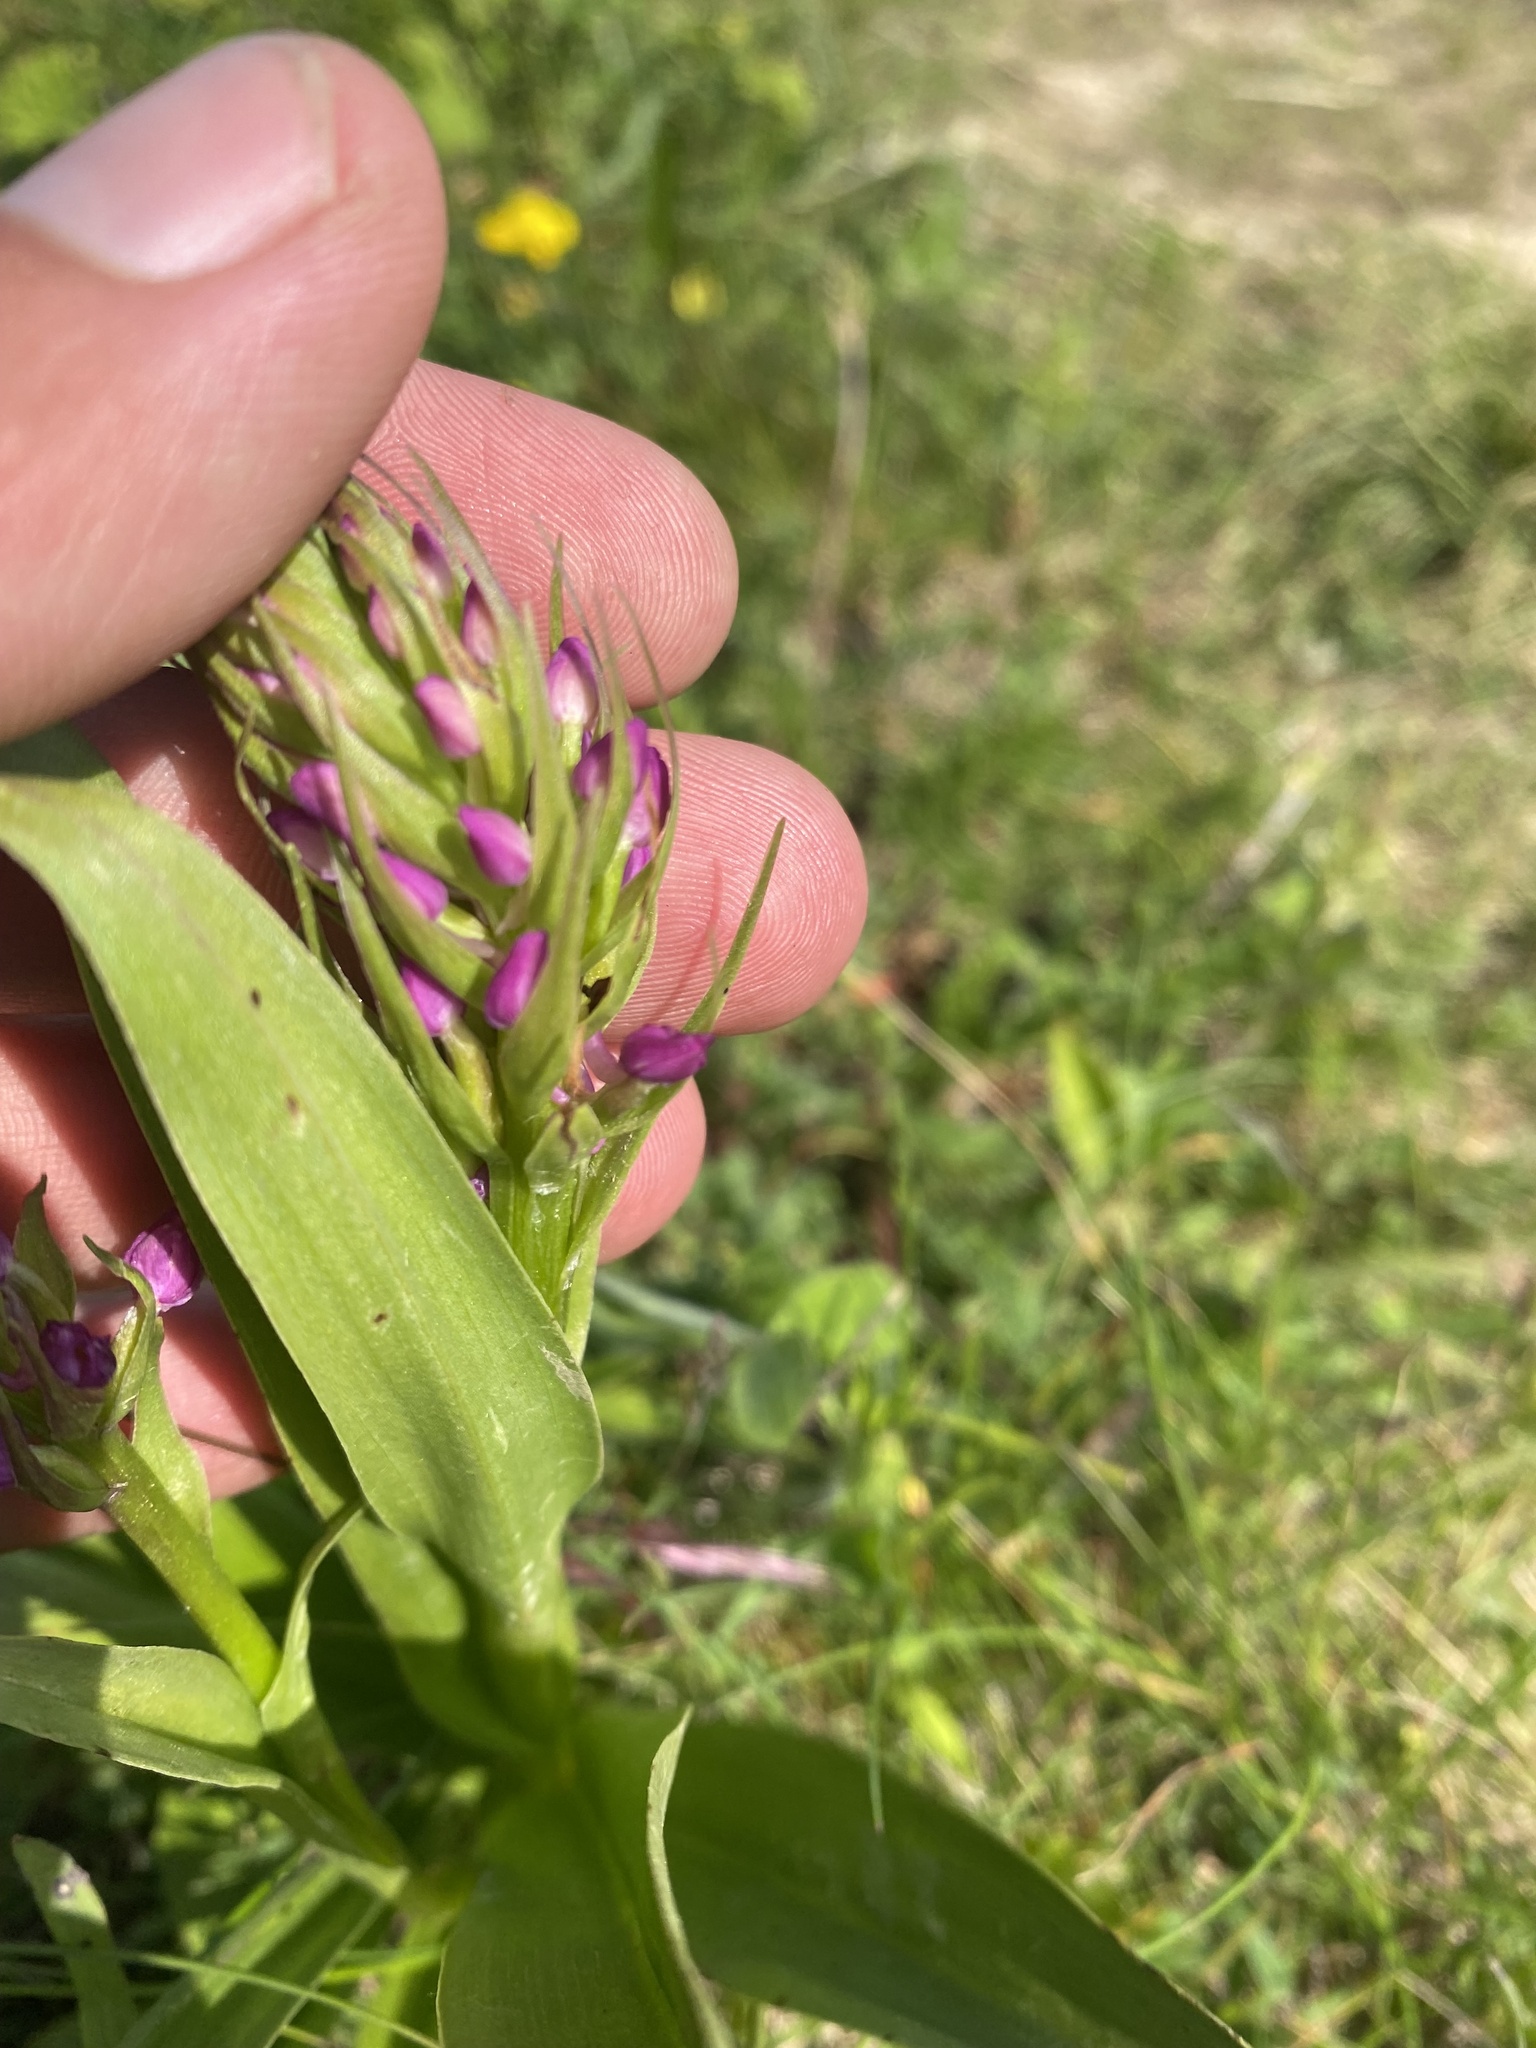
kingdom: Plantae
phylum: Tracheophyta
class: Liliopsida
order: Asparagales
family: Orchidaceae
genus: Gymnadenia
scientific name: Gymnadenia conopsea
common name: Fragrant orchid
